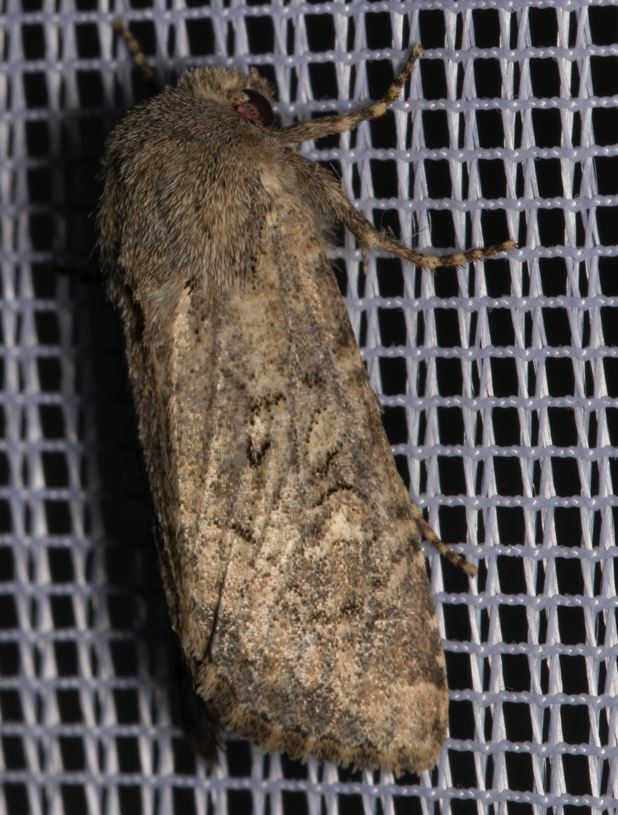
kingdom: Animalia
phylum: Arthropoda
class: Insecta
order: Lepidoptera
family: Noctuidae
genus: Luperina
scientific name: Luperina testacea
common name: Flounced rustic
